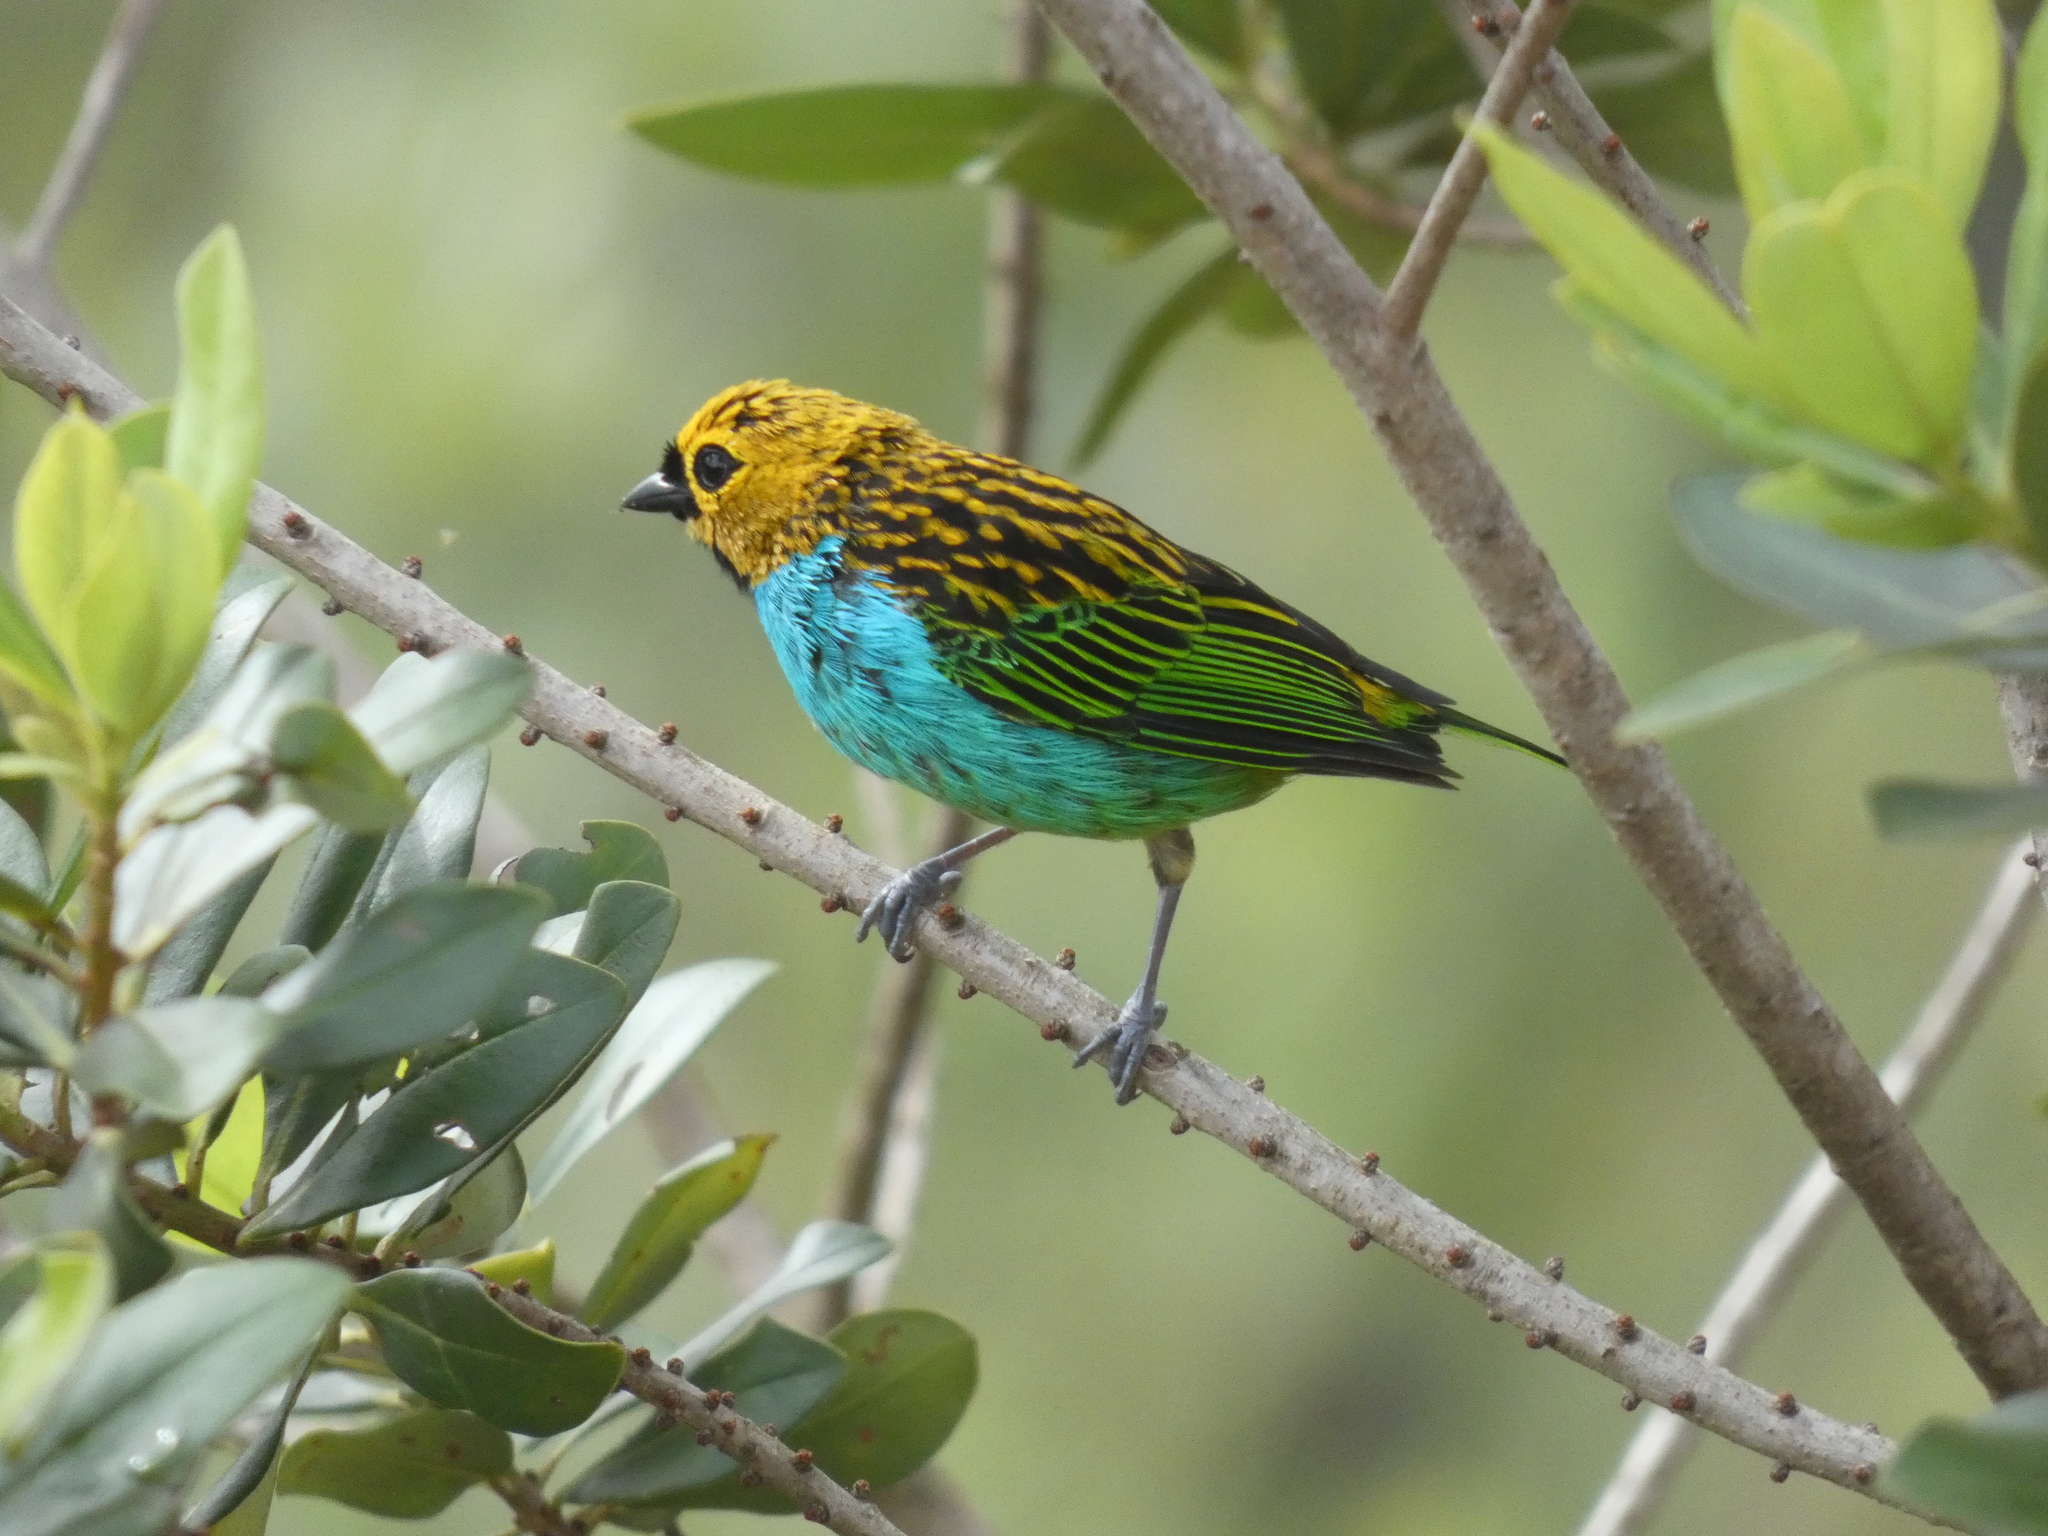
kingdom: Animalia
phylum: Chordata
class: Aves
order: Passeriformes
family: Thraupidae
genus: Tangara
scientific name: Tangara cyanoventris
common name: Gilt-edged tanager
